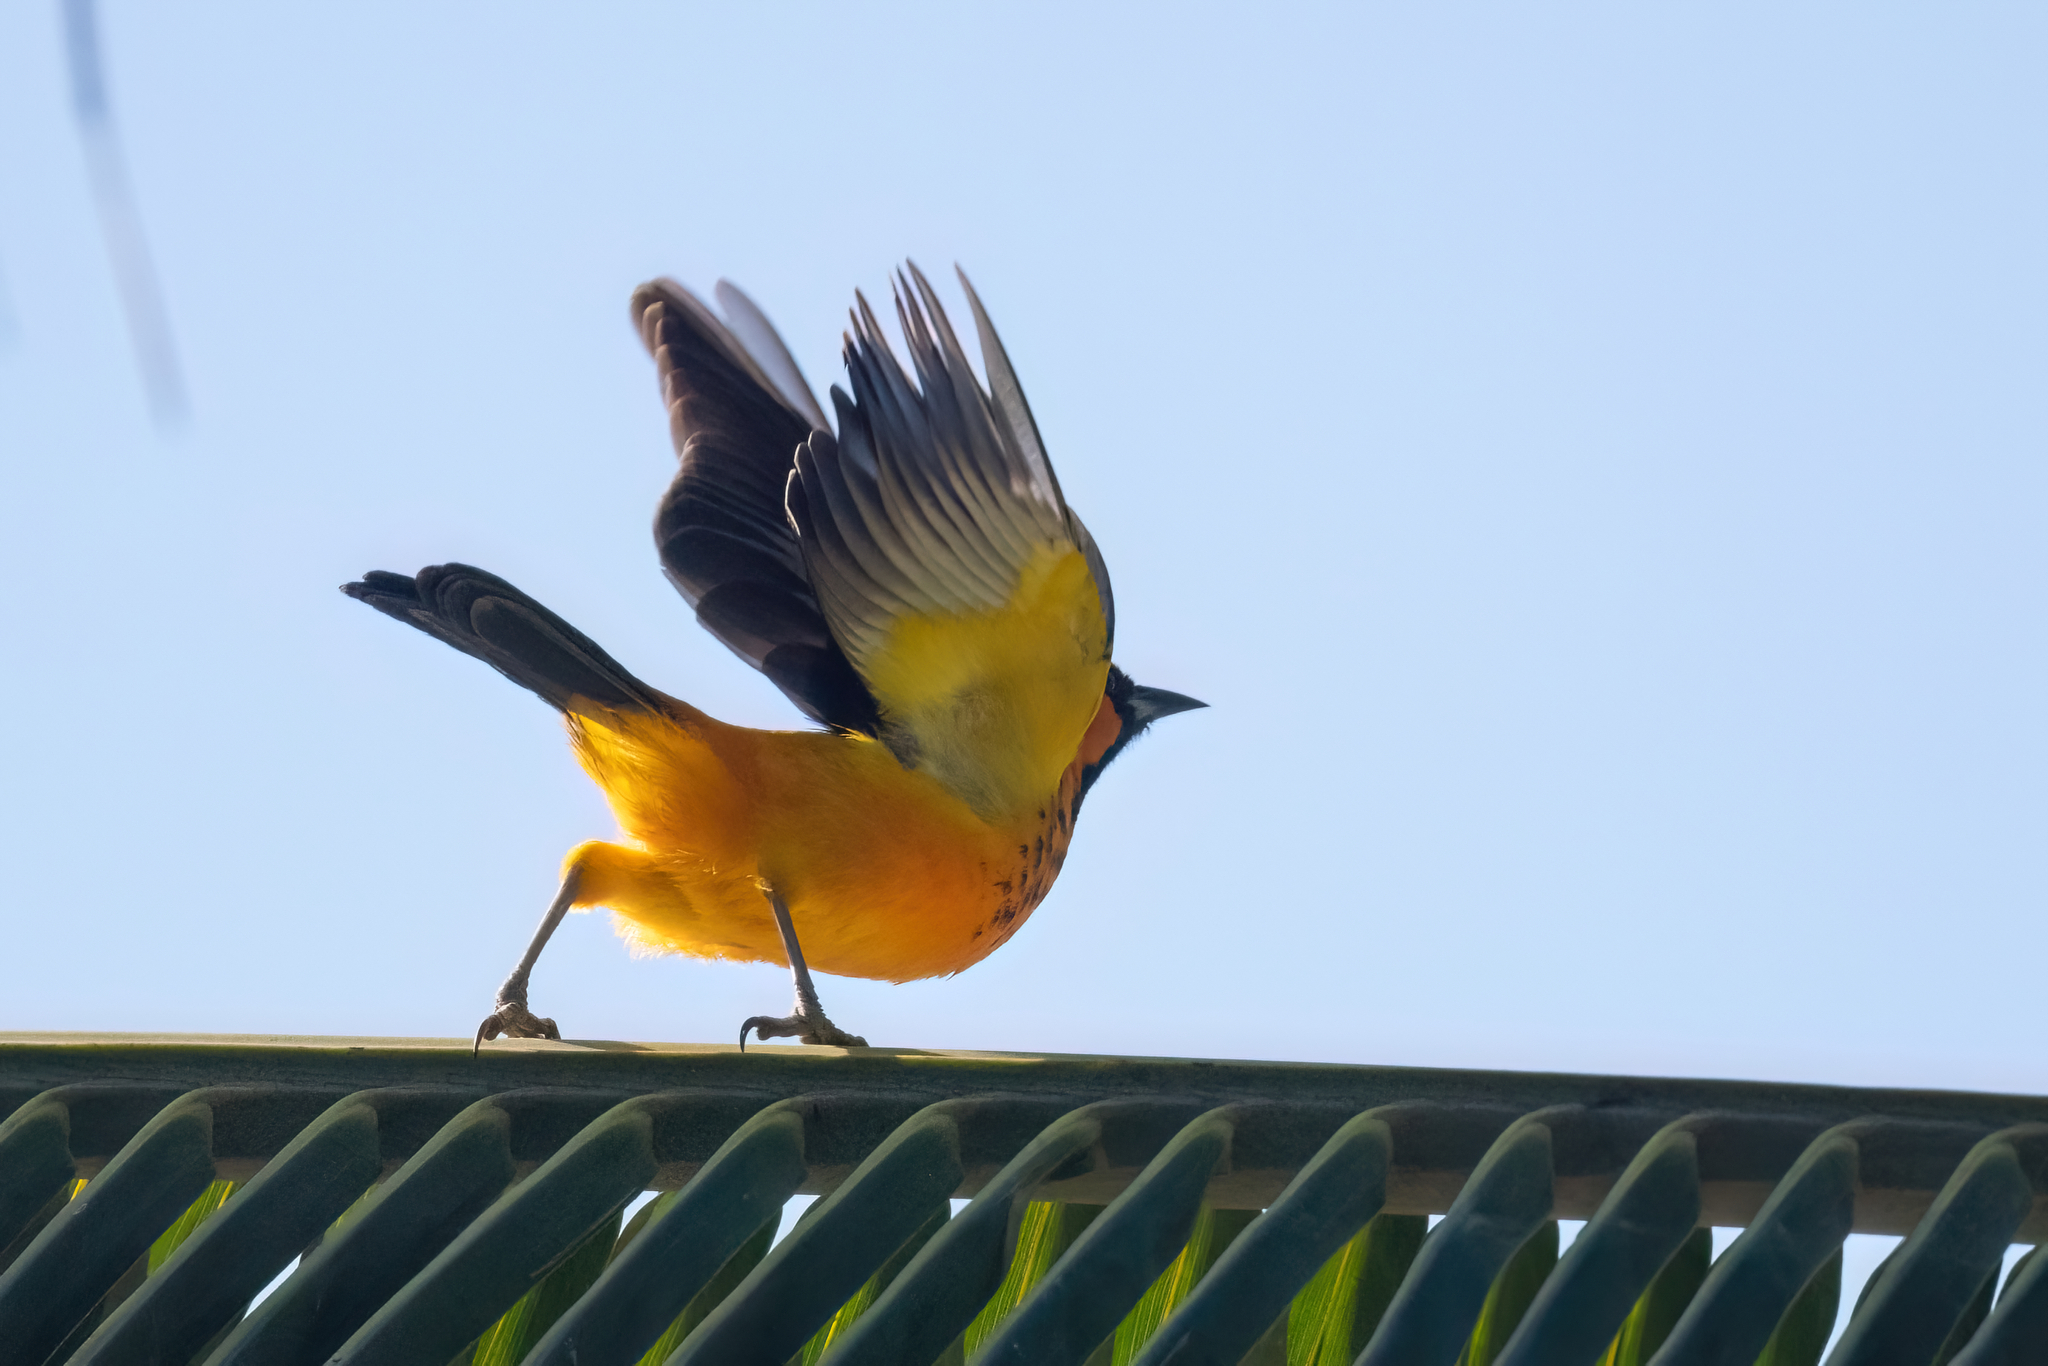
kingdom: Animalia
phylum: Chordata
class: Aves
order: Passeriformes
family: Icteridae
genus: Icterus
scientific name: Icterus pectoralis
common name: Spot-breasted oriole
